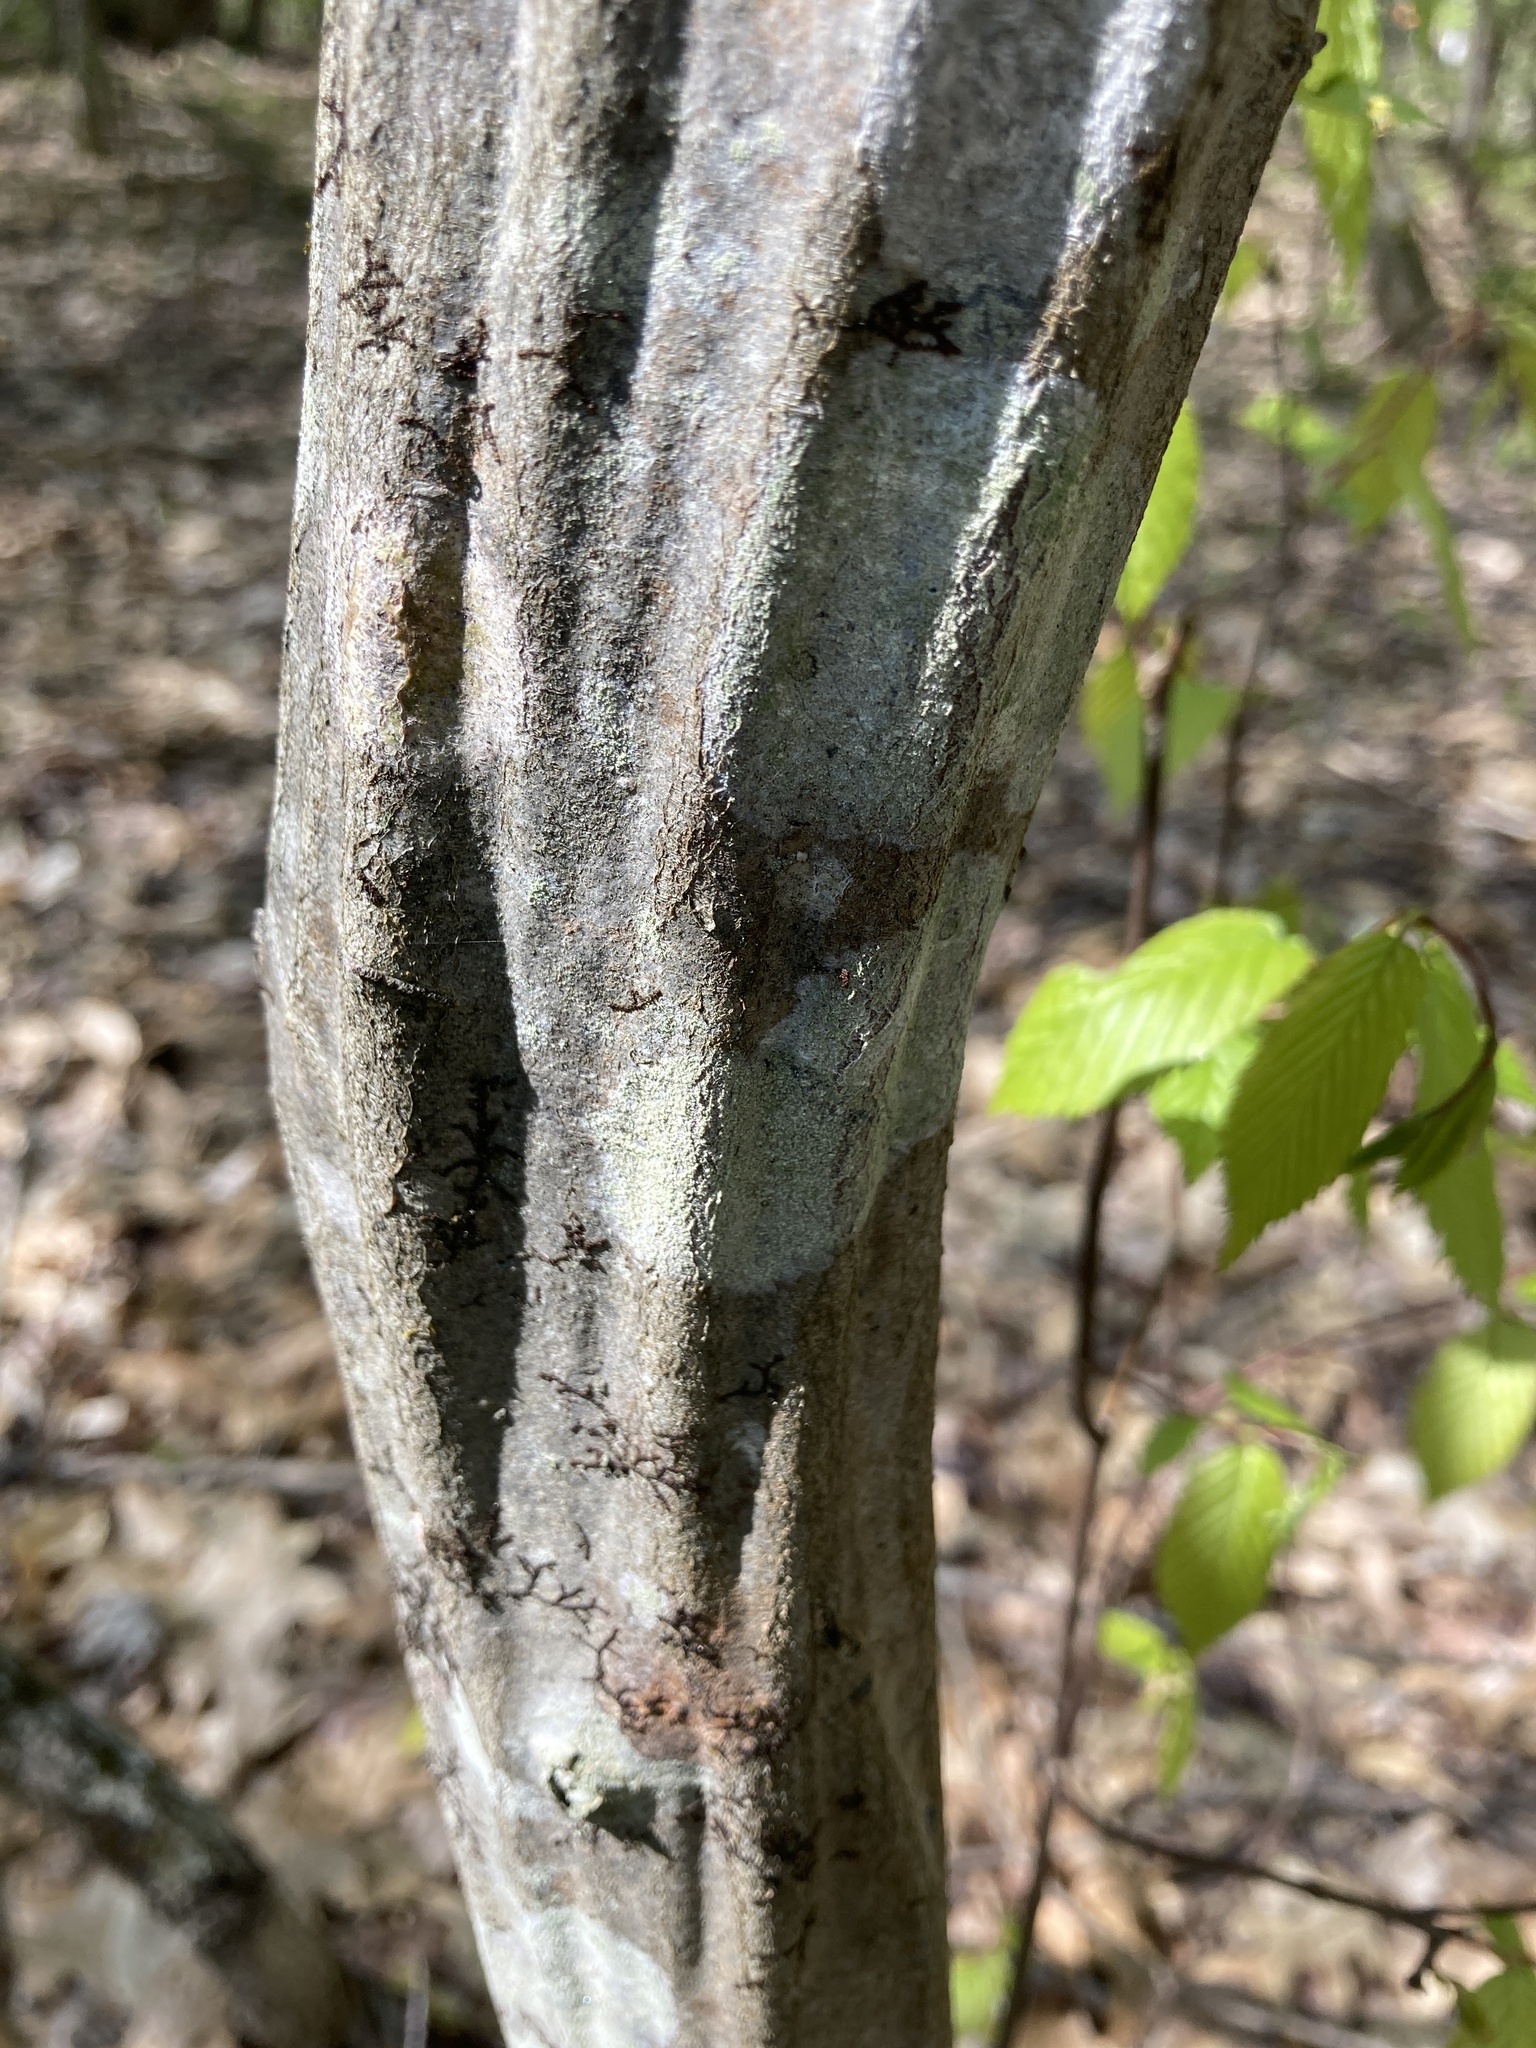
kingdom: Plantae
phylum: Tracheophyta
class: Magnoliopsida
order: Fagales
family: Betulaceae
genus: Carpinus
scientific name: Carpinus caroliniana
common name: American hornbeam
